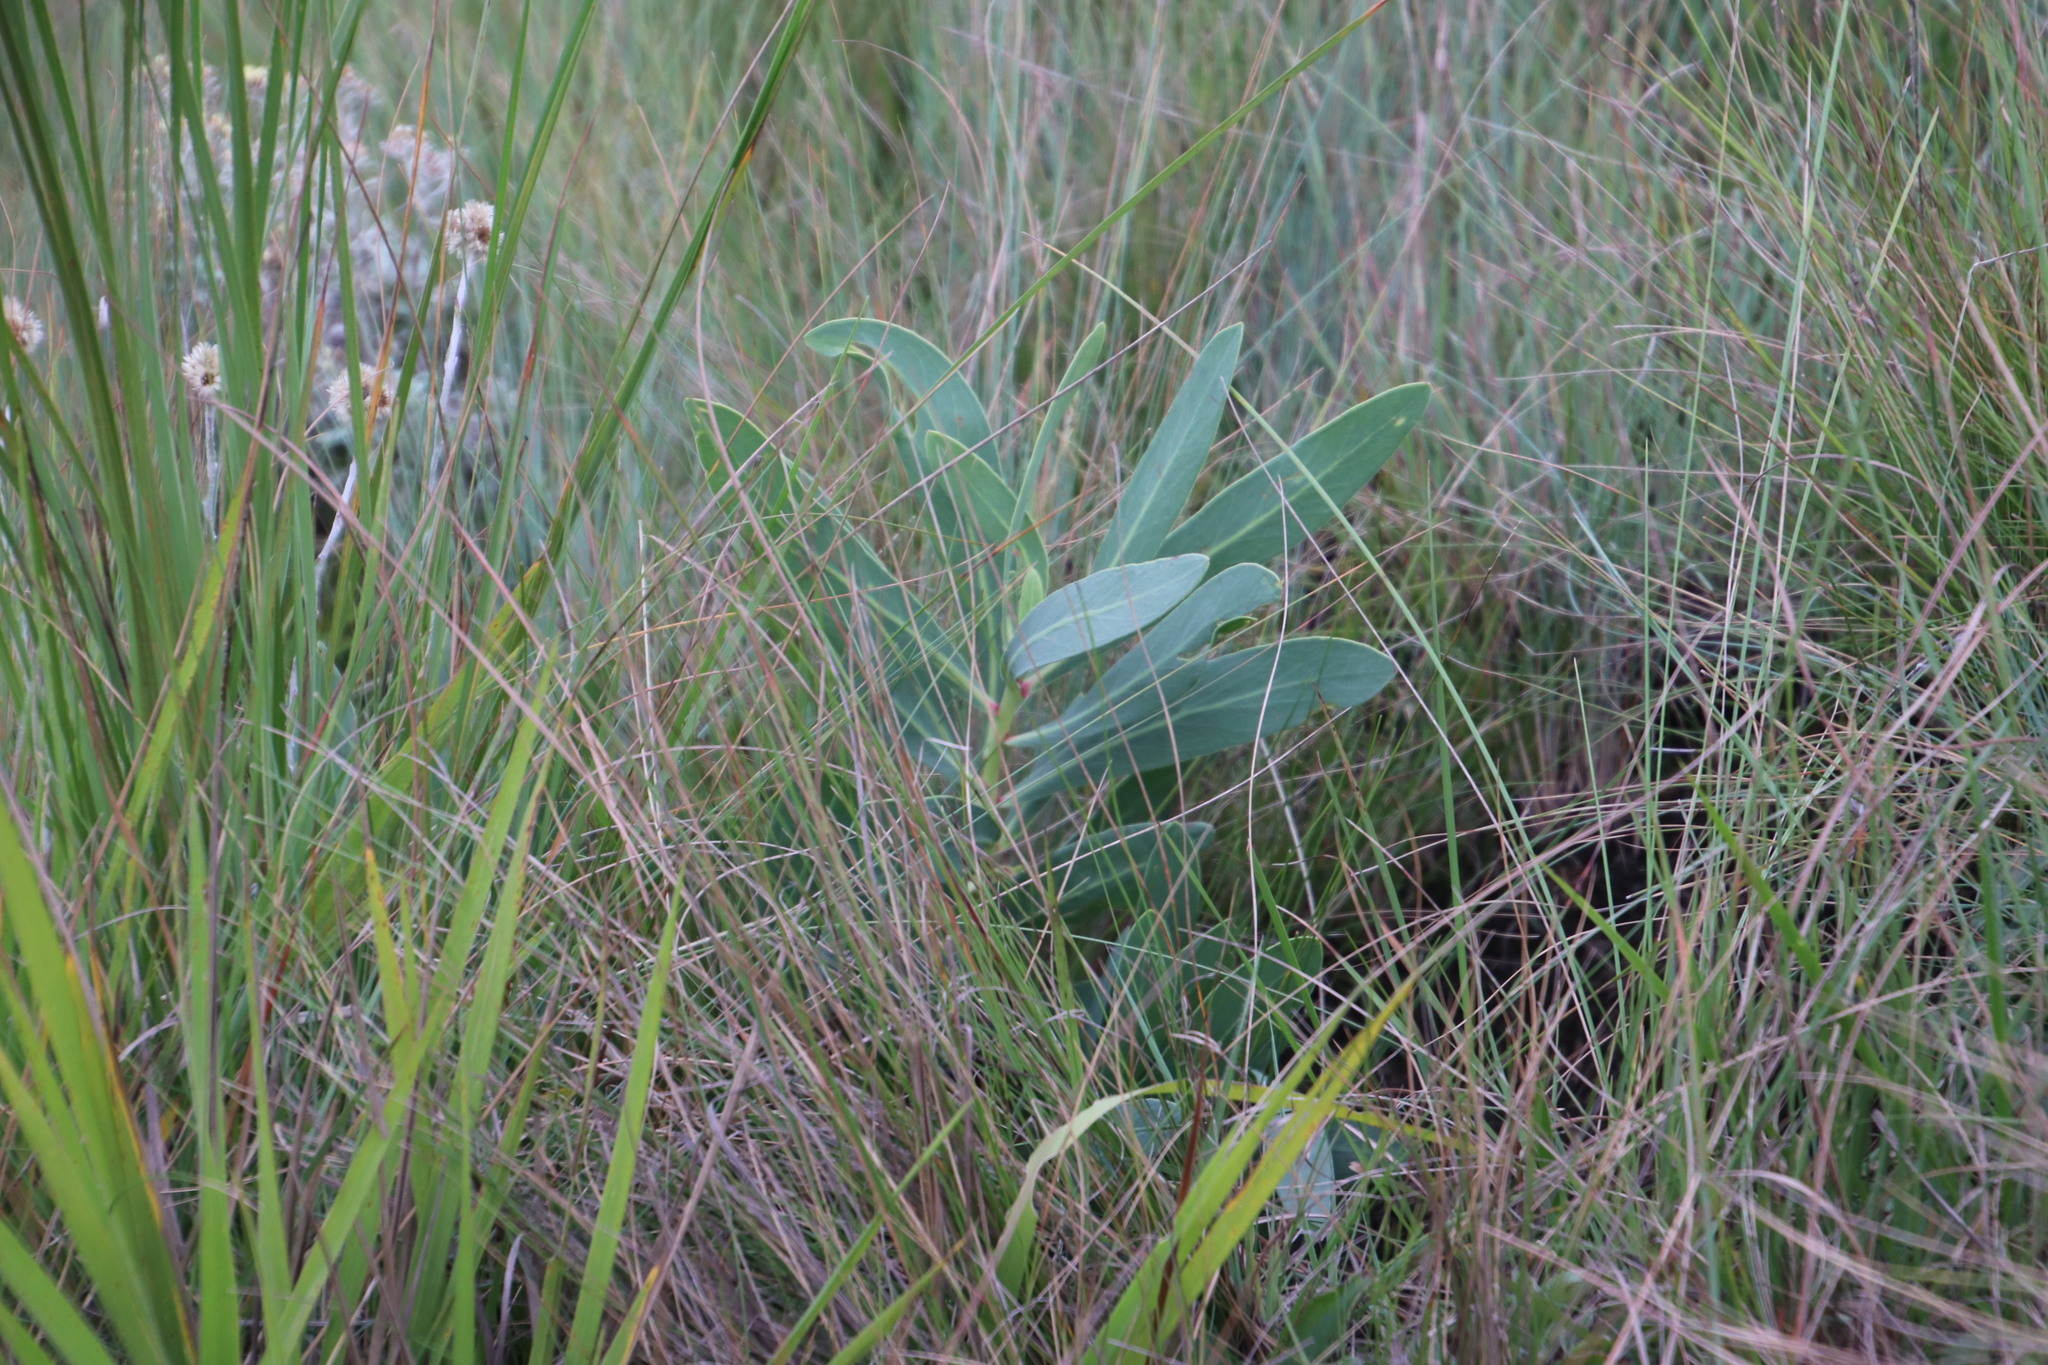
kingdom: Plantae
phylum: Tracheophyta
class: Magnoliopsida
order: Proteales
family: Proteaceae
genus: Protea
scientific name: Protea simplex
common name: Dwarf grassveld sugarbush
